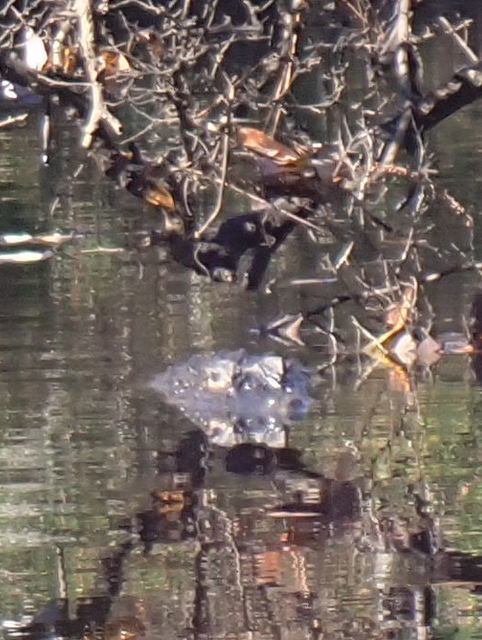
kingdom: Animalia
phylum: Chordata
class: Crocodylia
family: Alligatoridae
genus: Alligator
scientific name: Alligator mississippiensis
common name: American alligator
